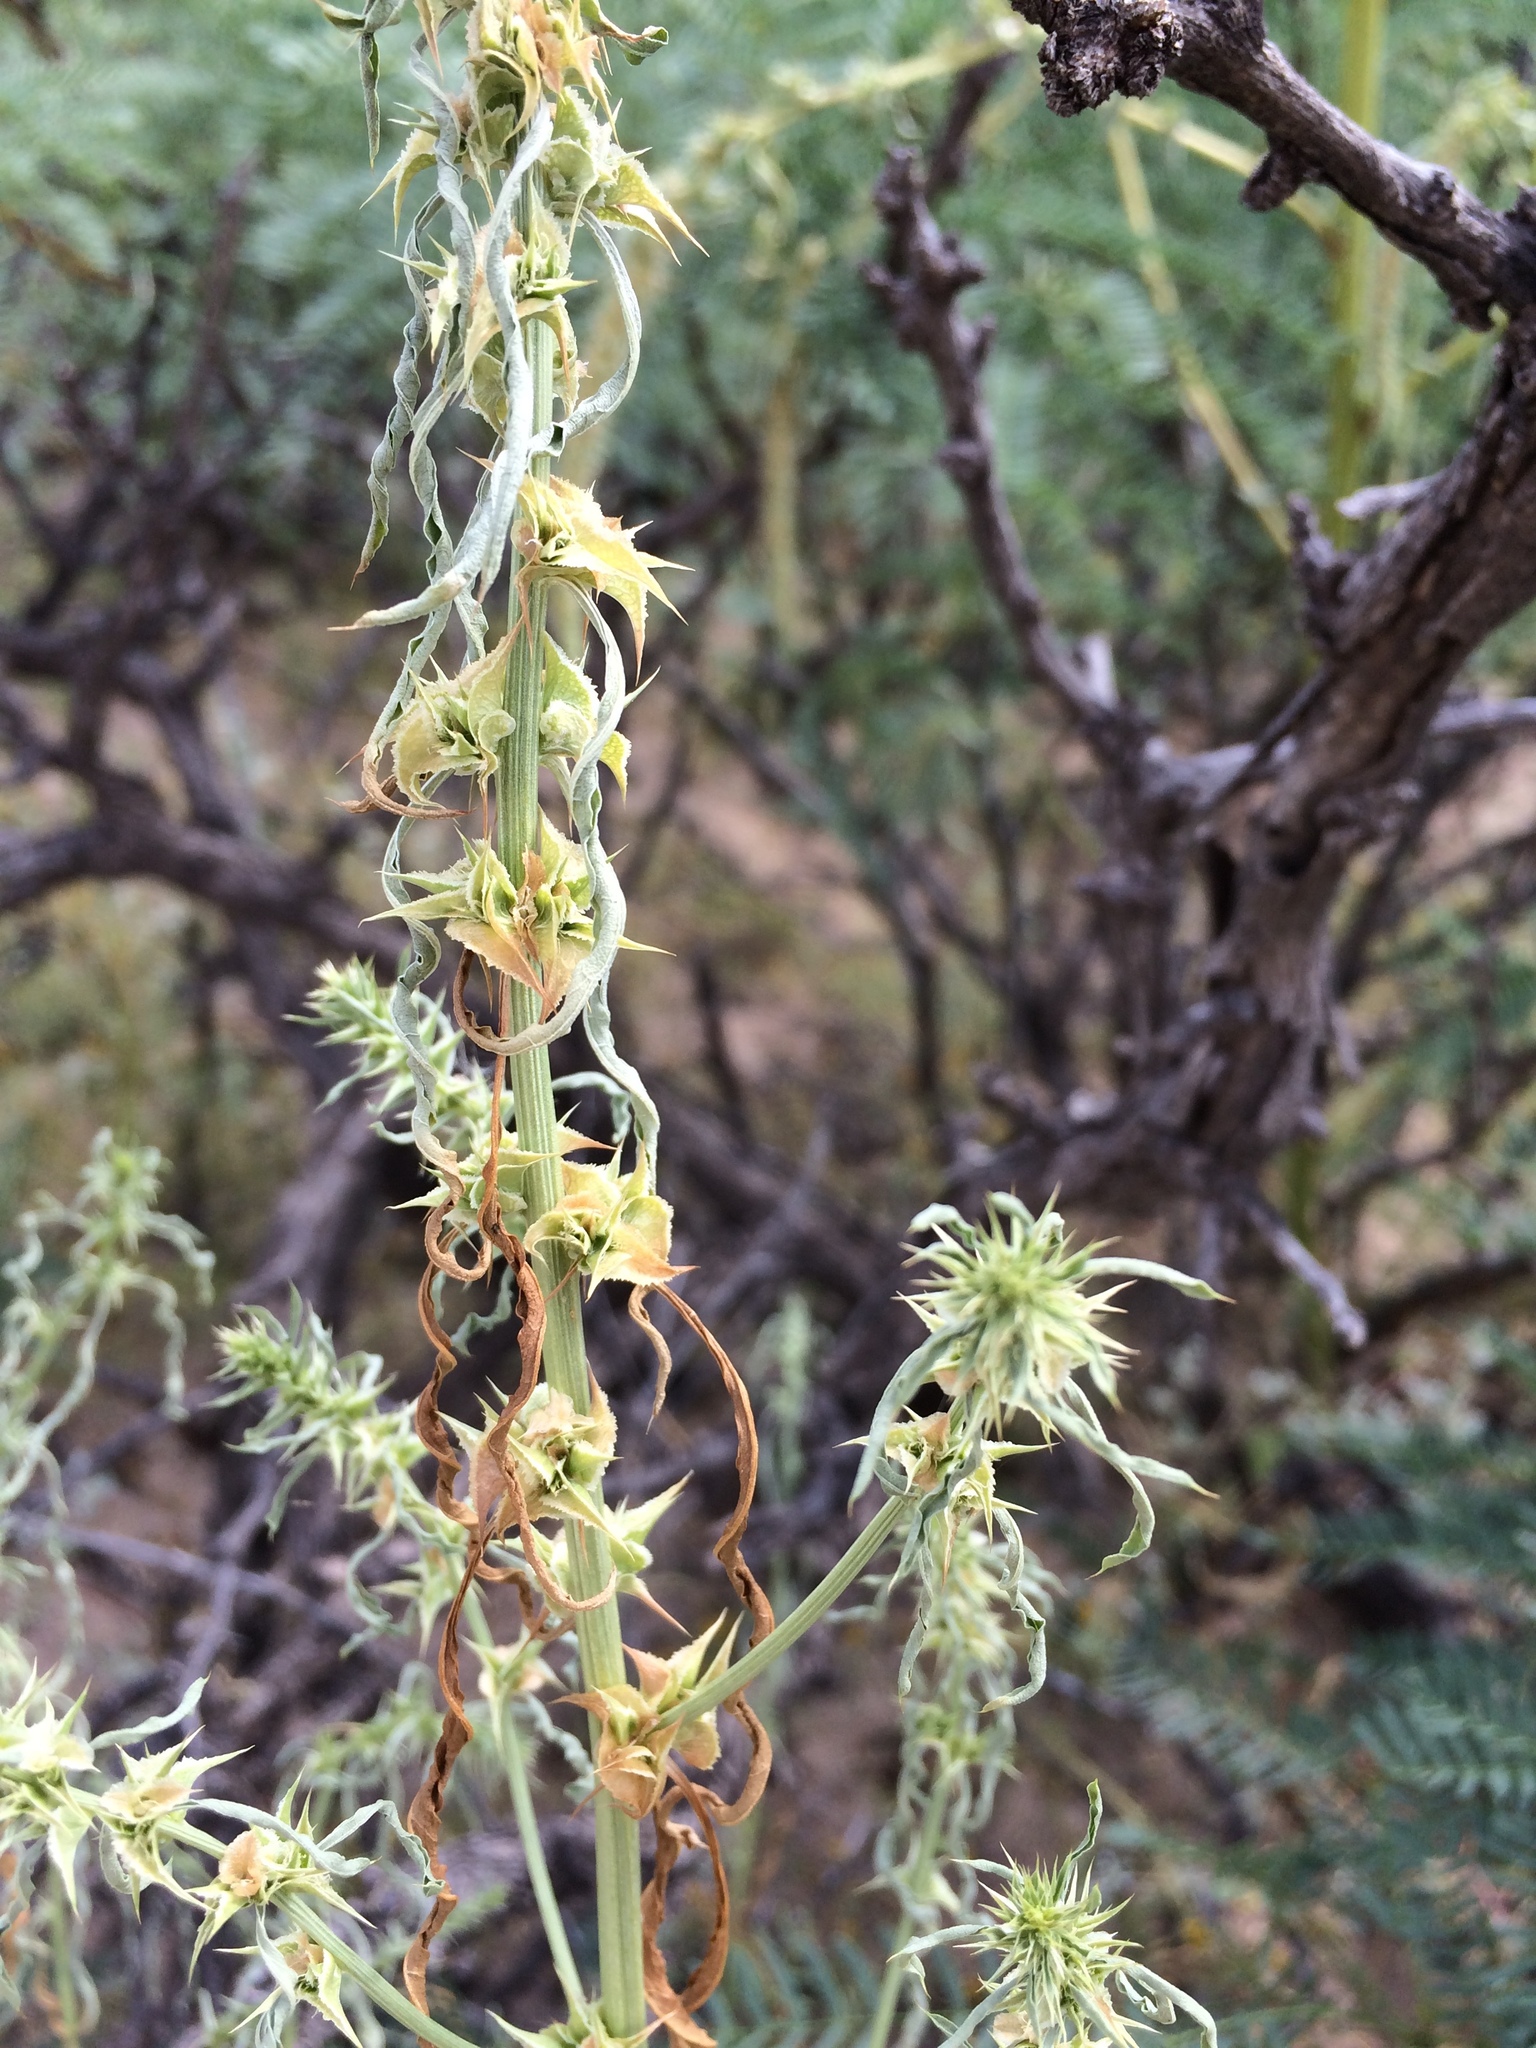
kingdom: Plantae
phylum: Tracheophyta
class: Magnoliopsida
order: Caryophyllales
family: Amaranthaceae
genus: Amaranthus
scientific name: Amaranthus acanthochiton
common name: Greenstripe
